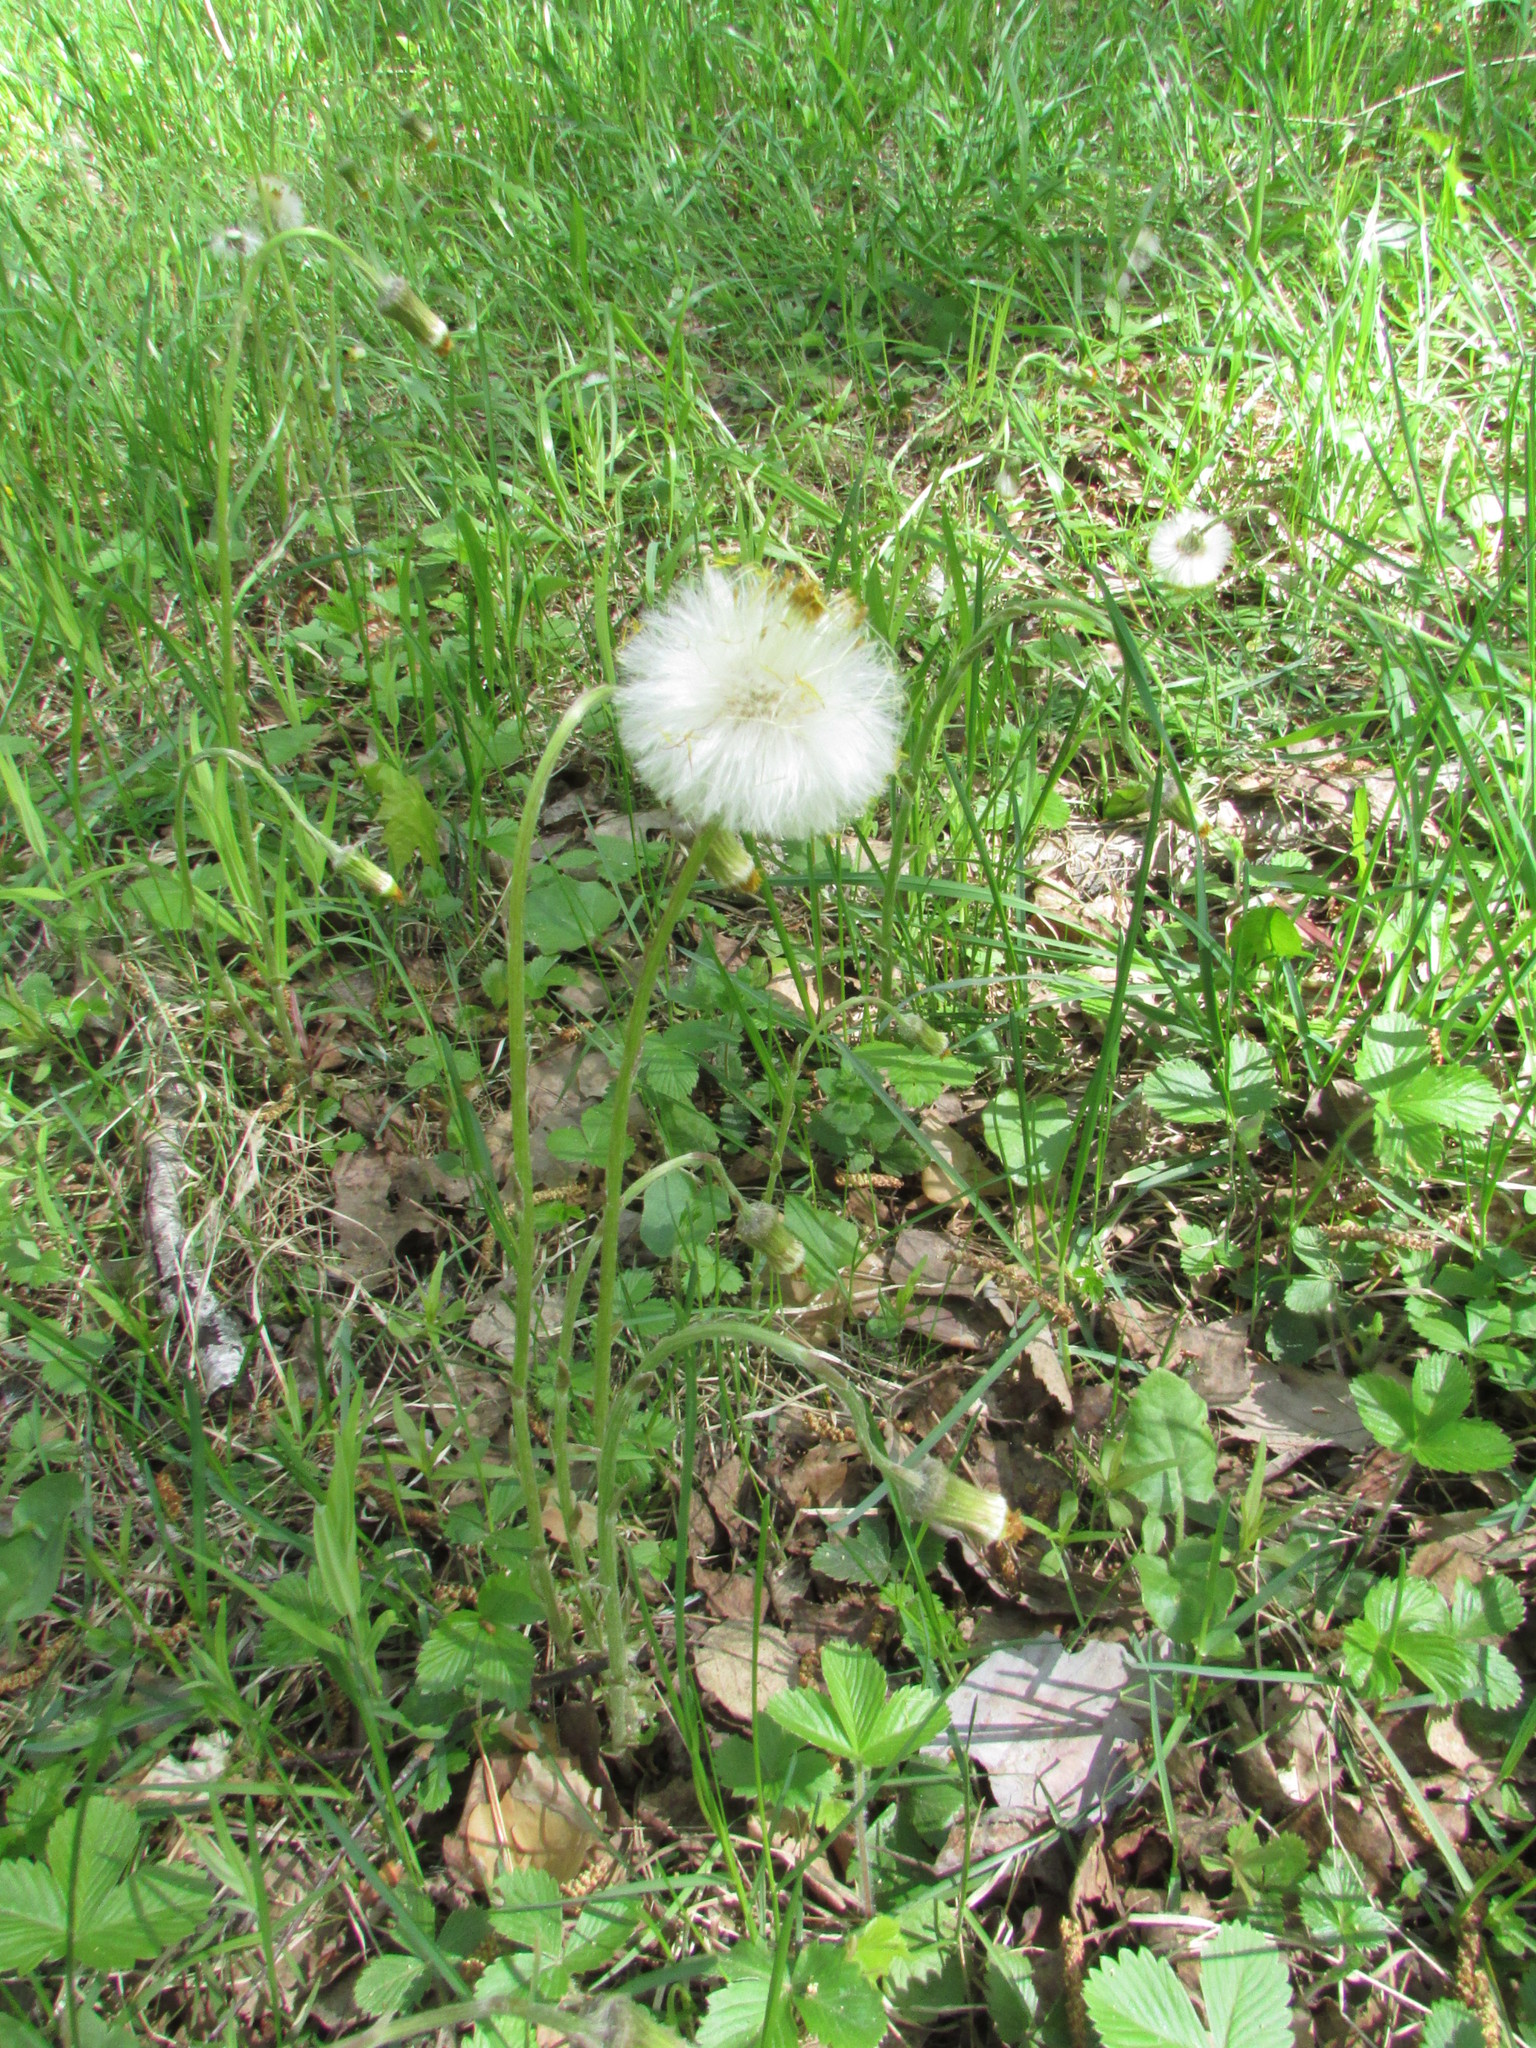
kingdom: Plantae
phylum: Tracheophyta
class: Magnoliopsida
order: Asterales
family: Asteraceae
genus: Tussilago
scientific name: Tussilago farfara
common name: Coltsfoot
